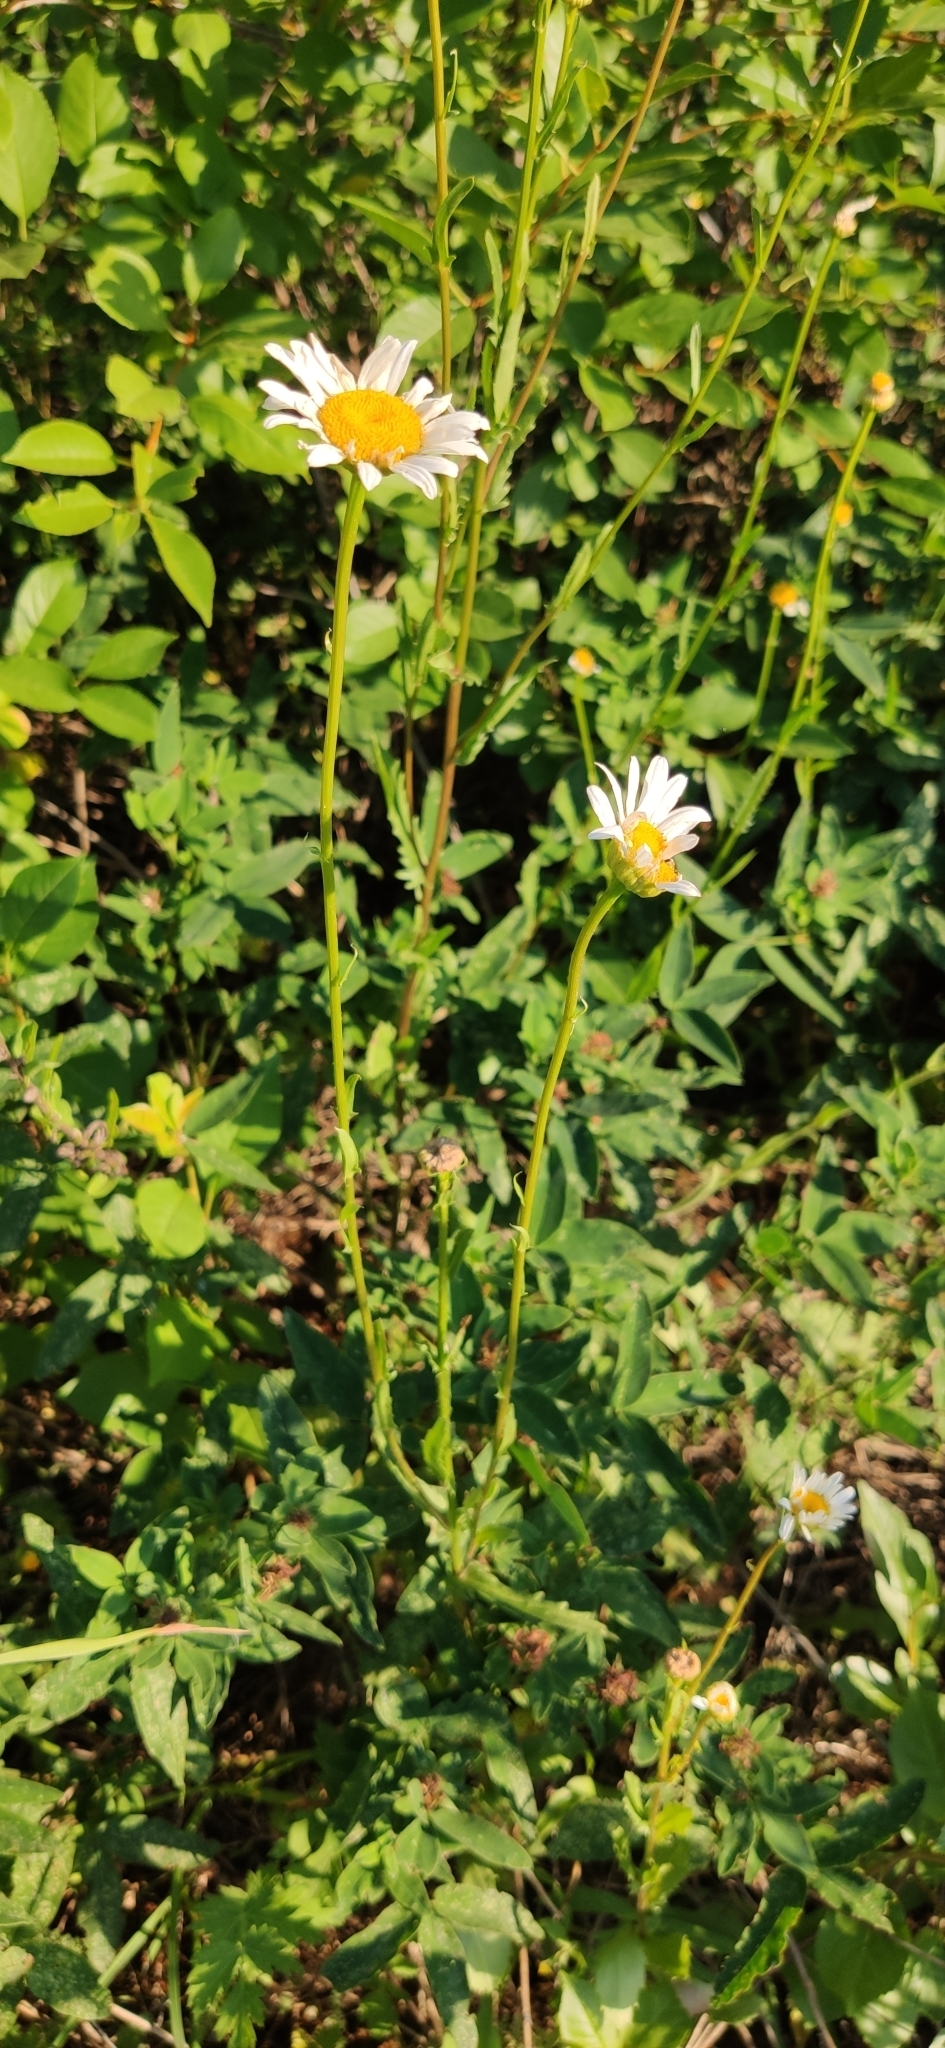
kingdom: Plantae
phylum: Tracheophyta
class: Magnoliopsida
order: Asterales
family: Asteraceae
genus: Leucanthemum
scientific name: Leucanthemum vulgare
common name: Oxeye daisy
